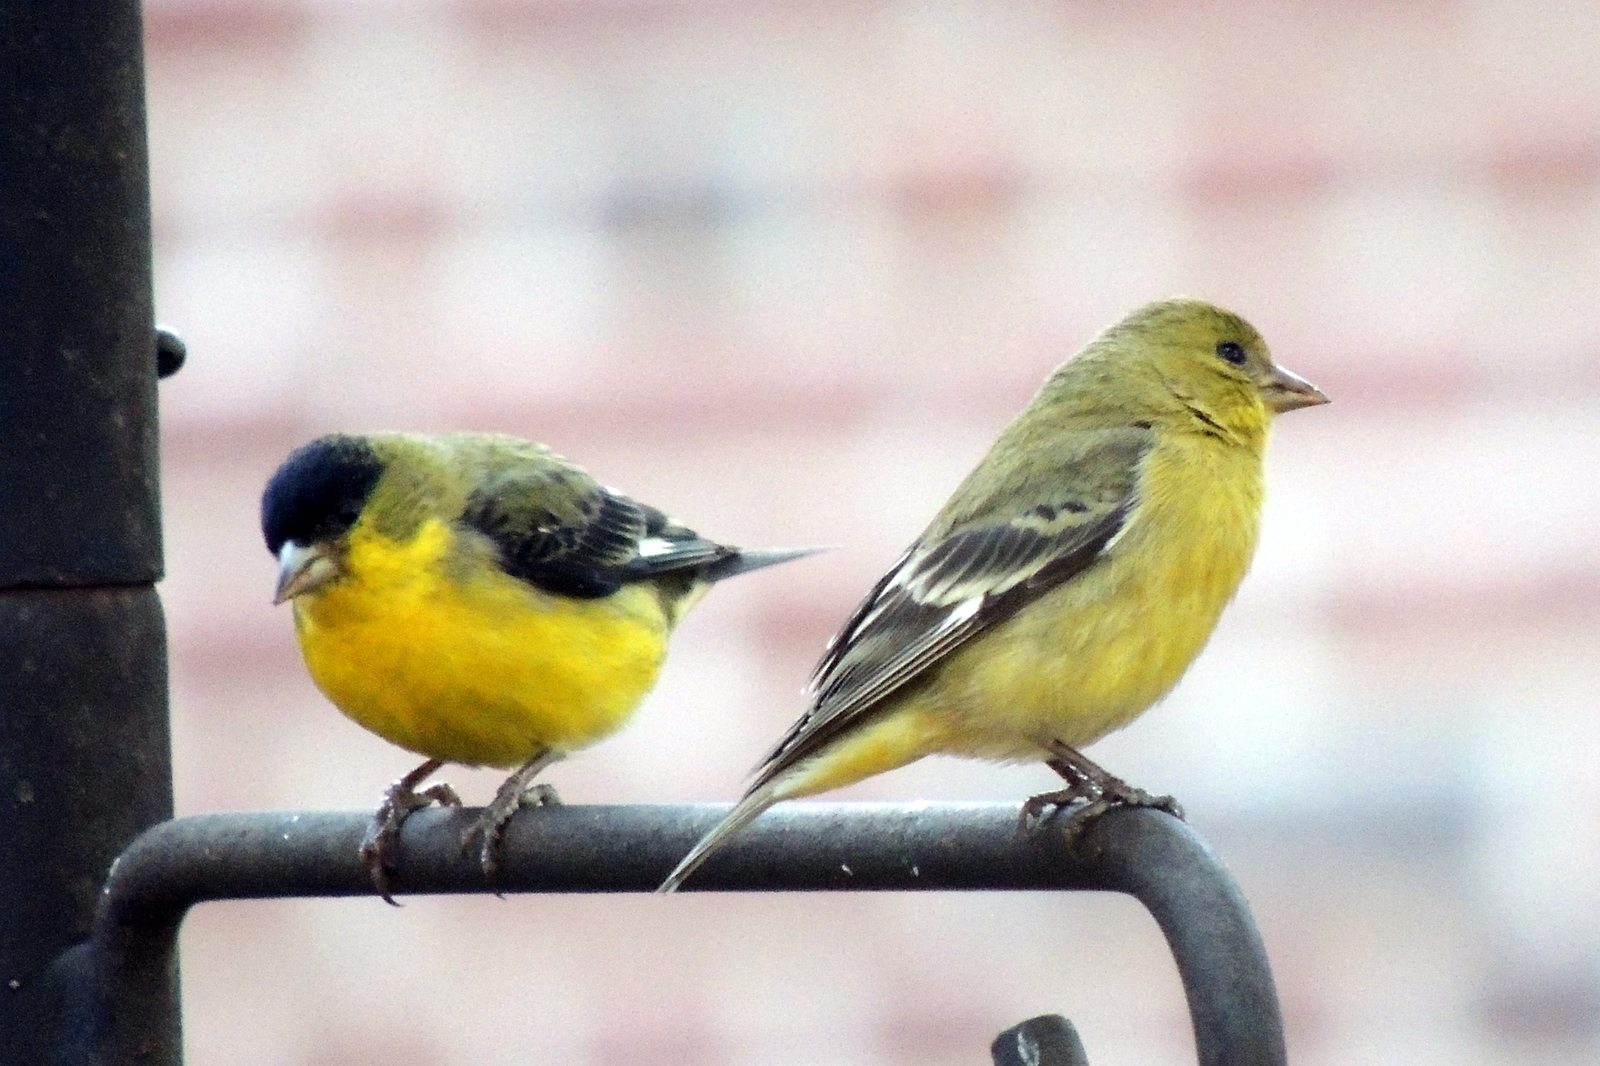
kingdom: Animalia
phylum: Chordata
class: Aves
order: Passeriformes
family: Fringillidae
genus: Spinus
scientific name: Spinus psaltria
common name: Lesser goldfinch
